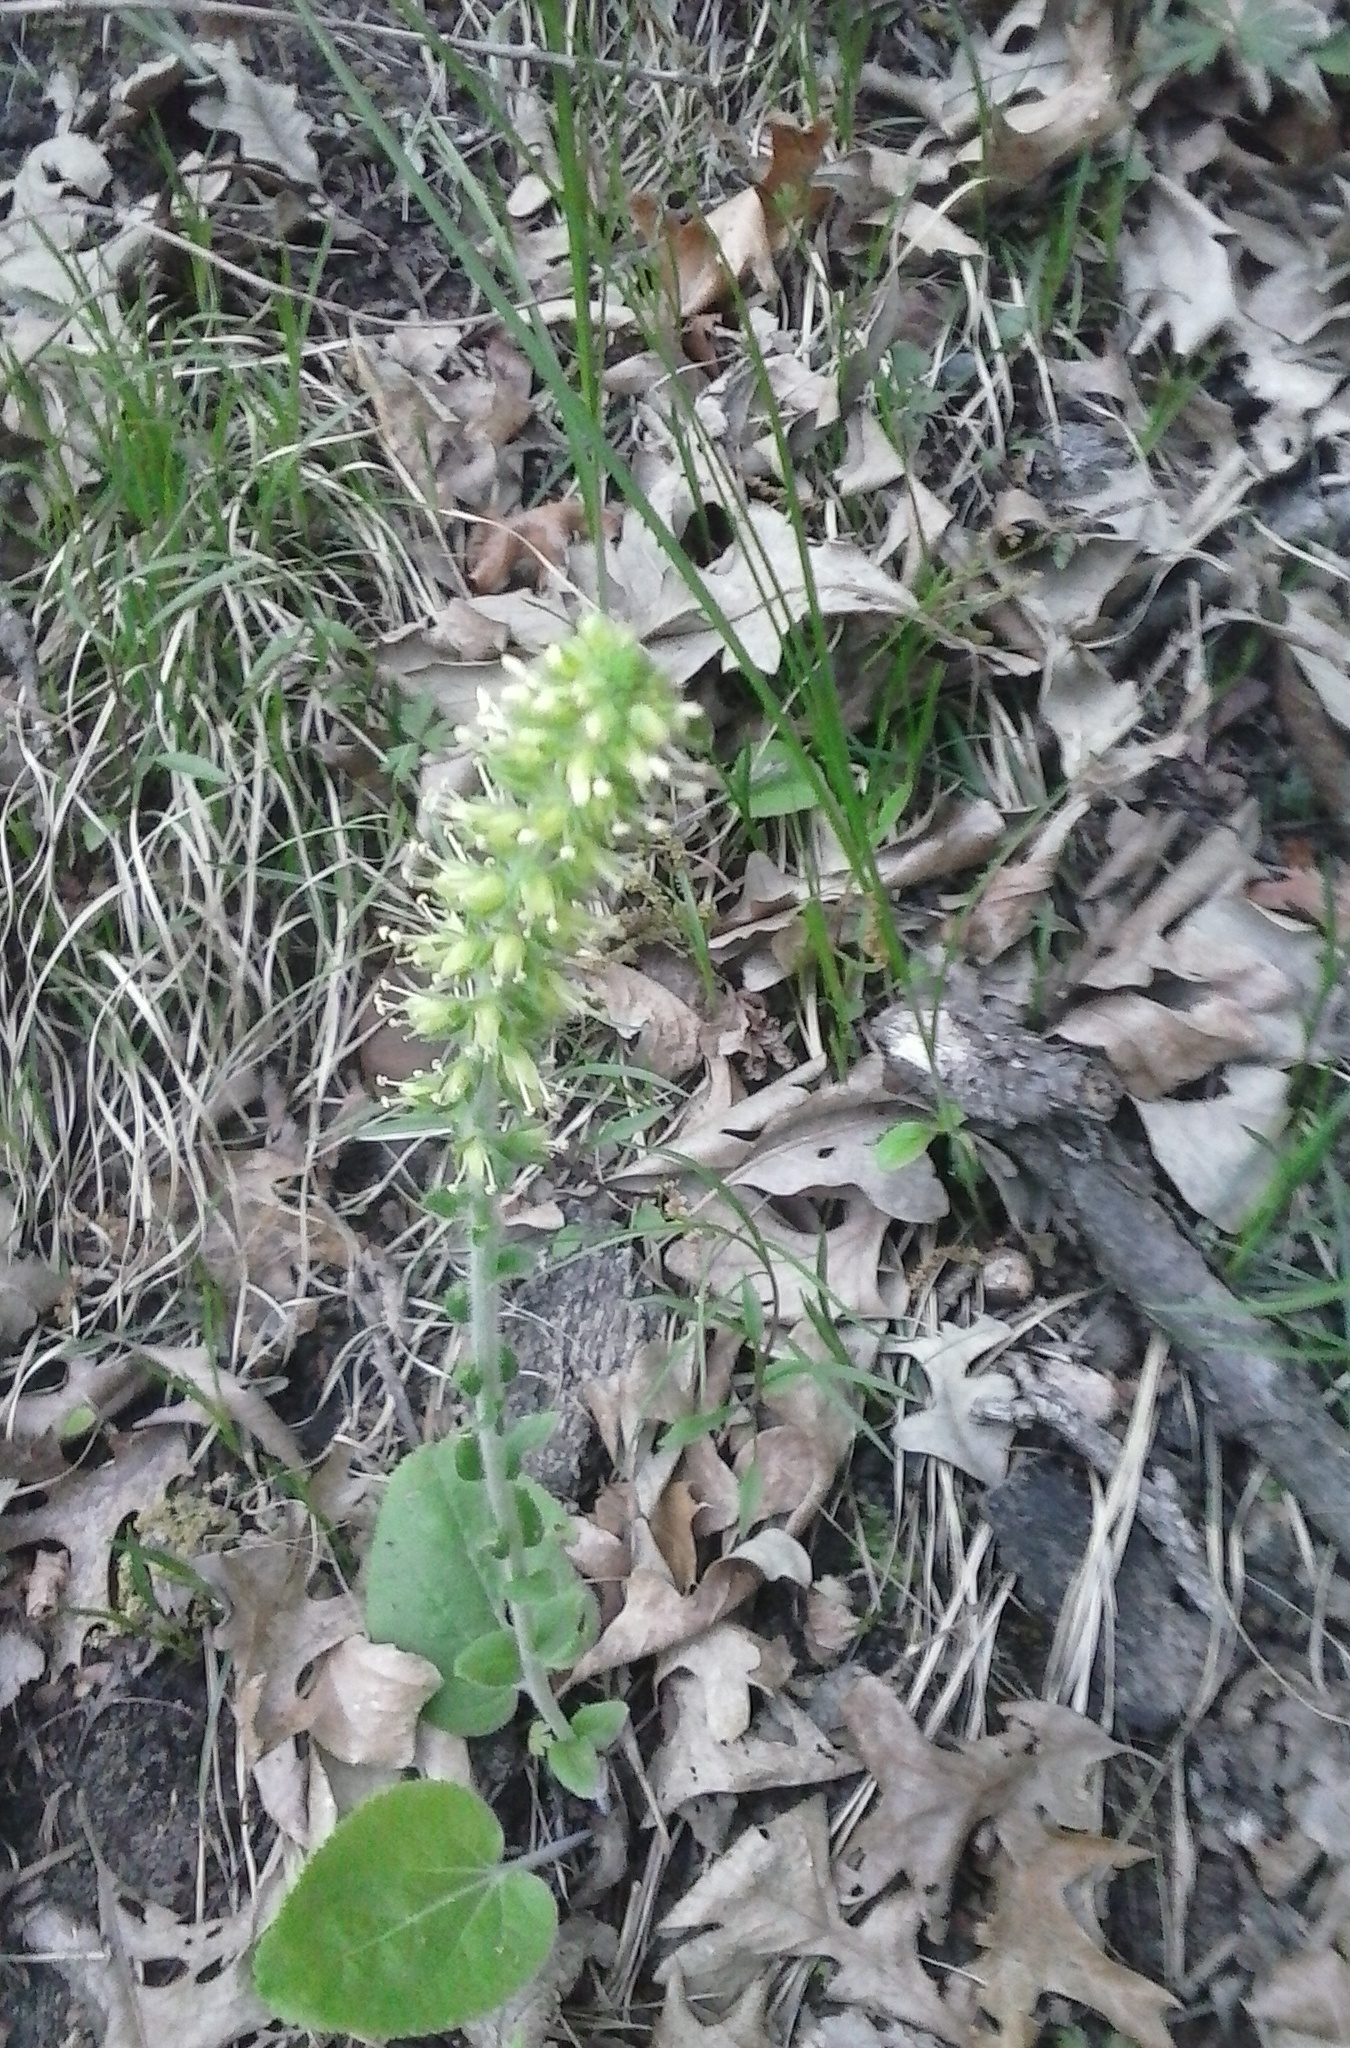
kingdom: Plantae
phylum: Tracheophyta
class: Magnoliopsida
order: Lamiales
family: Plantaginaceae
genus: Synthyris
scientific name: Synthyris bullii
